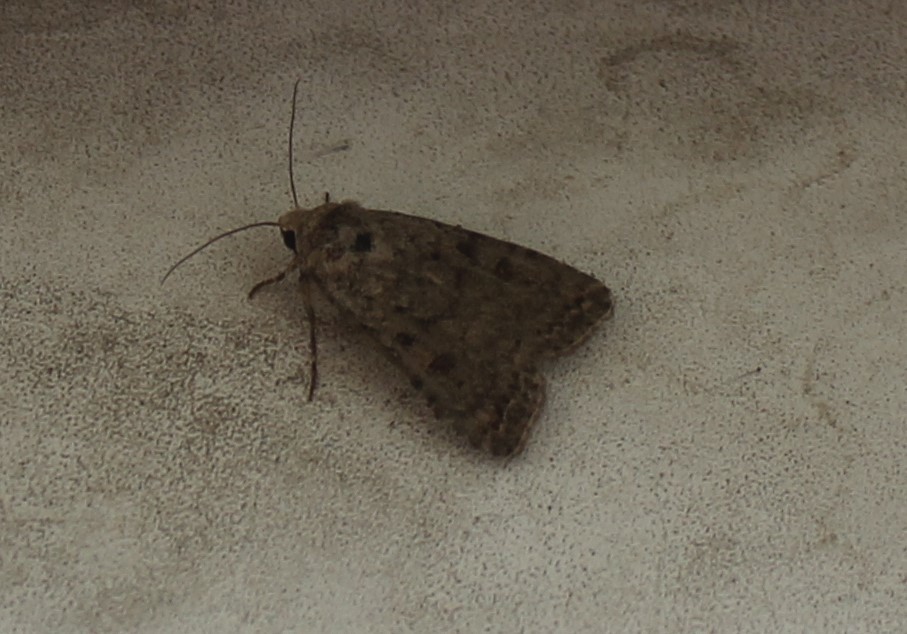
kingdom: Animalia
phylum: Arthropoda
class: Insecta
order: Lepidoptera
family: Noctuidae
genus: Caradrina
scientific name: Caradrina clavipalpis
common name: Pale mottled willow
